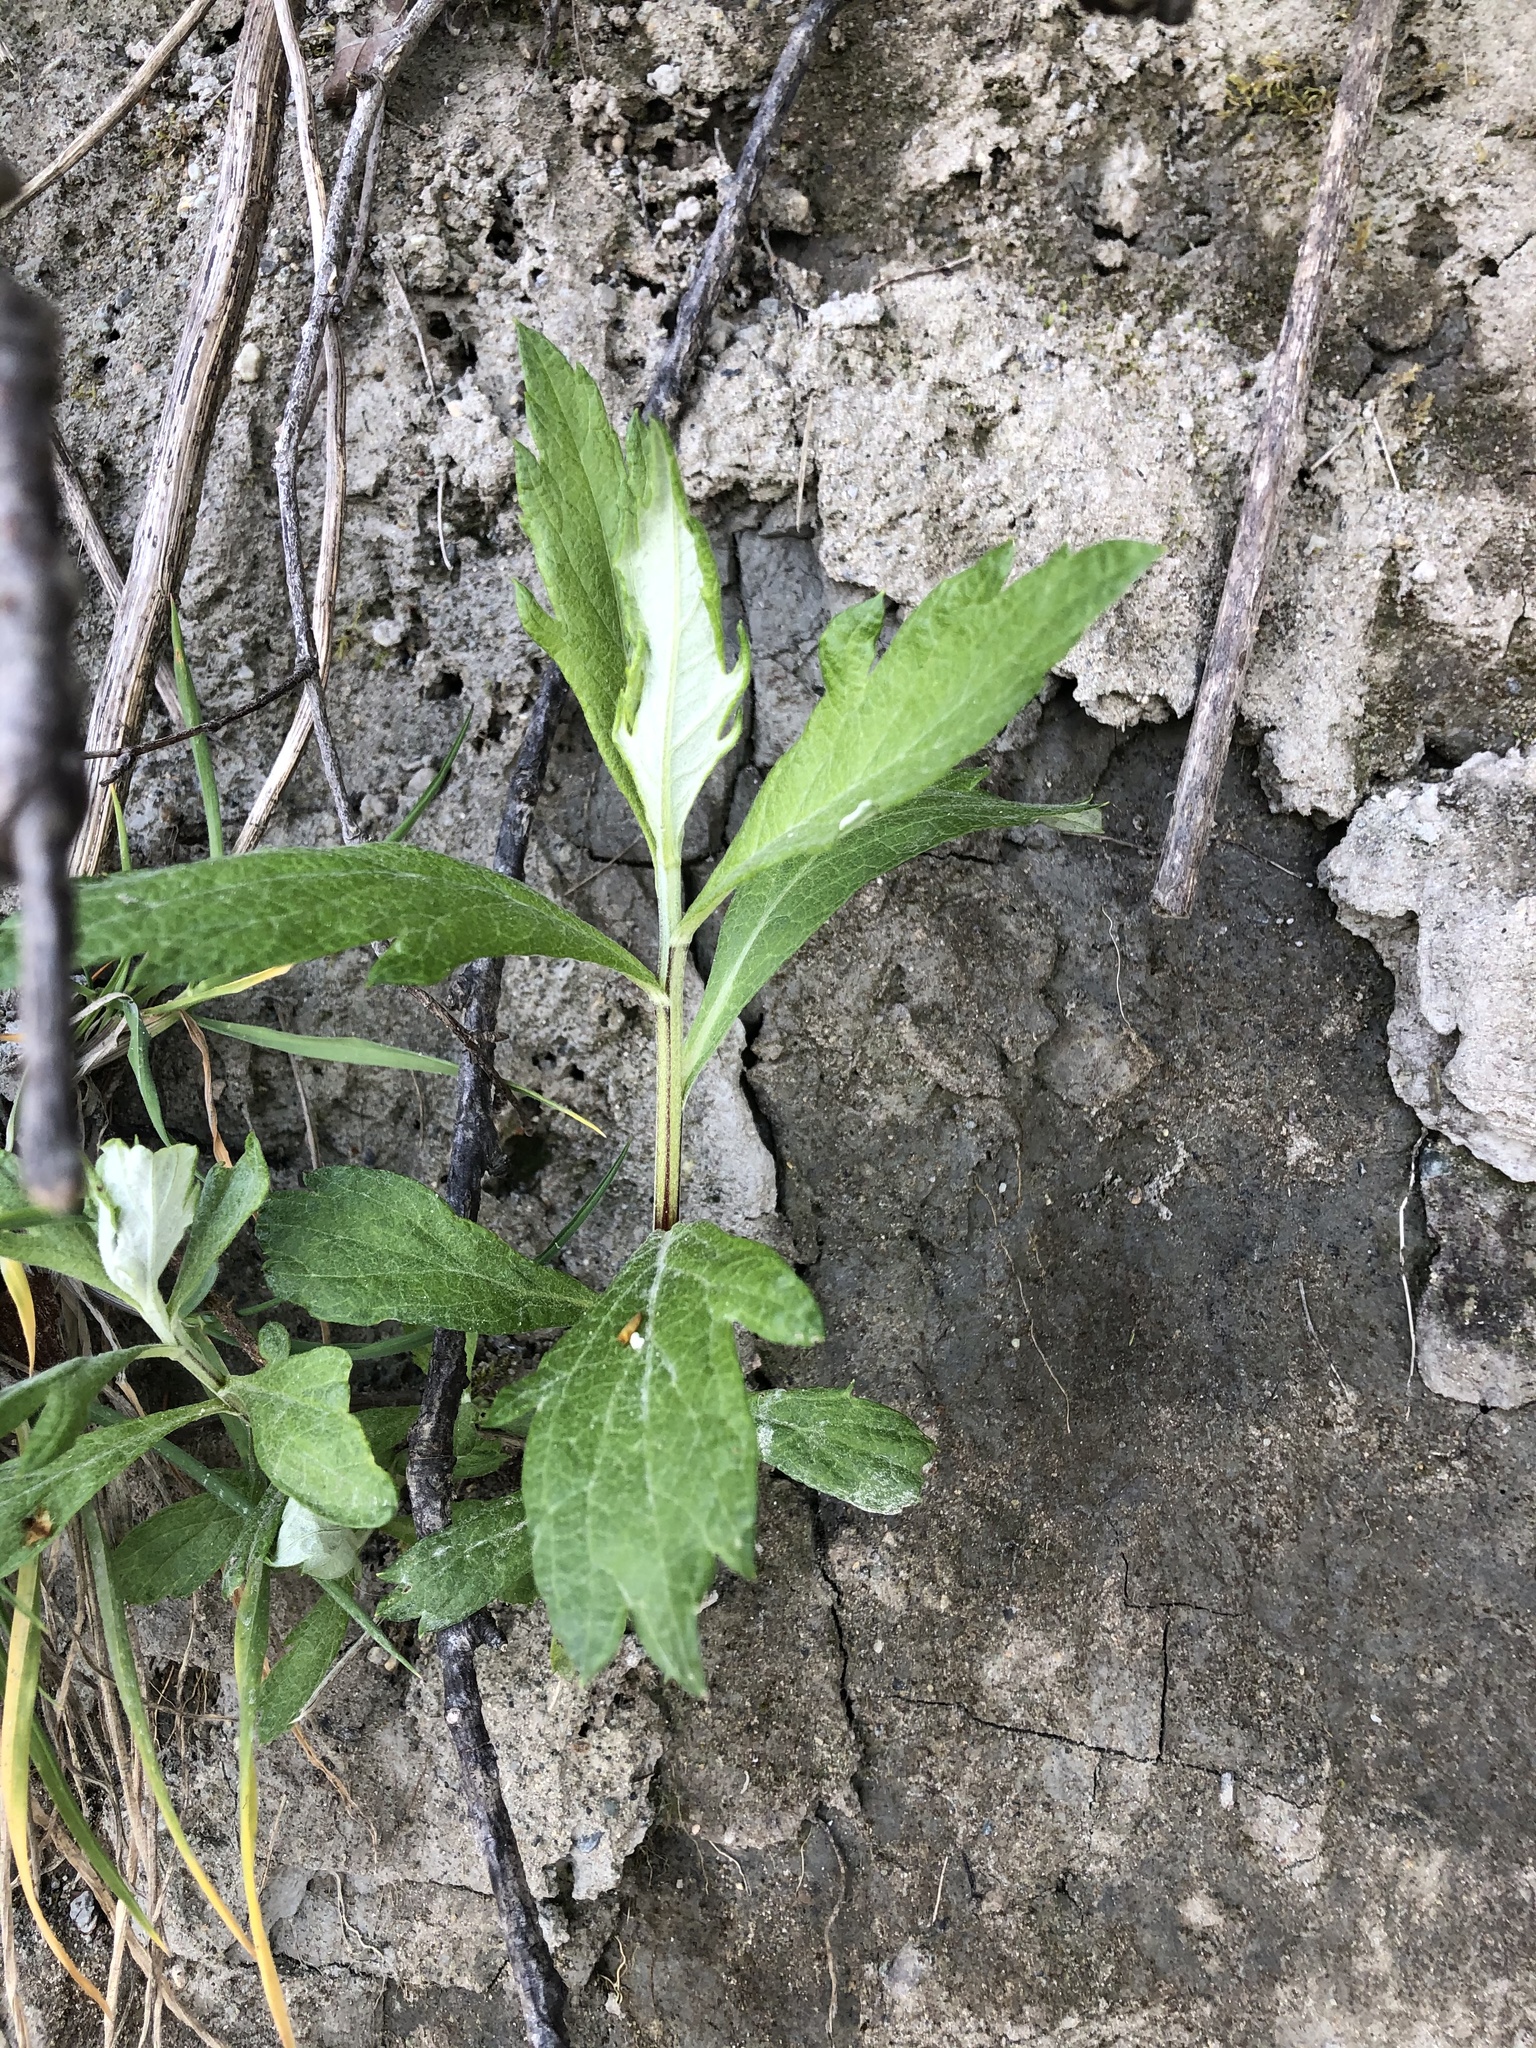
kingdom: Plantae
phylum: Tracheophyta
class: Magnoliopsida
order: Asterales
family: Asteraceae
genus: Artemisia
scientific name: Artemisia suksdorfii
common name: Suksdorf sagewort
